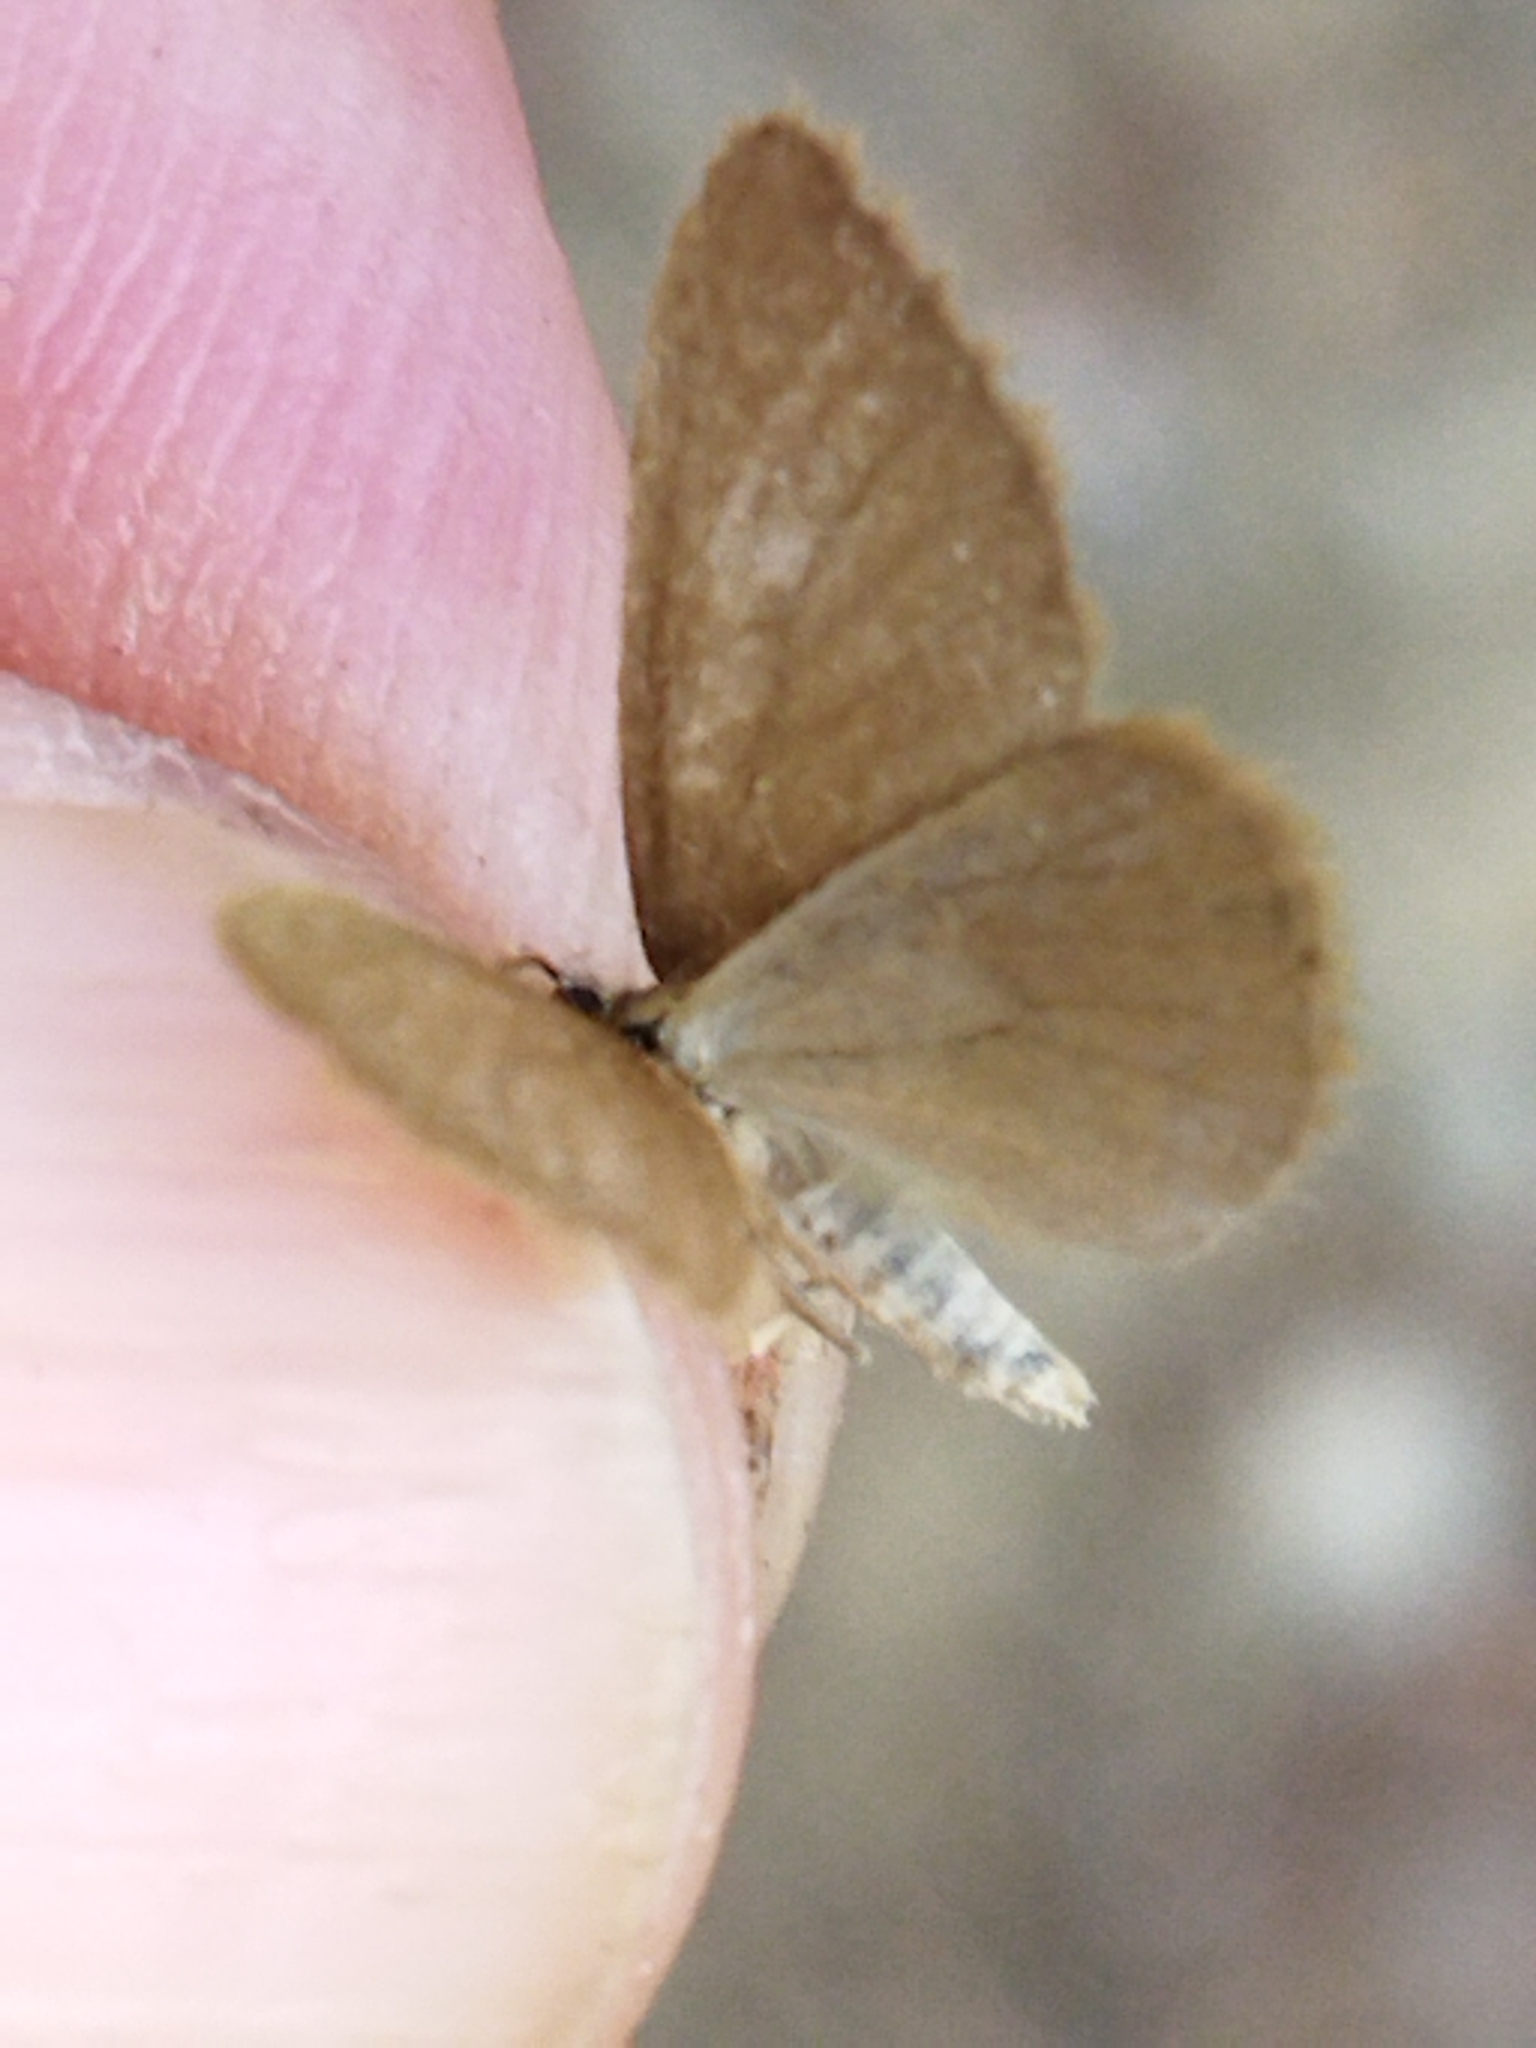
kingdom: Animalia
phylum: Arthropoda
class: Insecta
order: Lepidoptera
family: Geometridae
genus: Minoa
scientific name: Minoa murinata
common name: Drab looper
